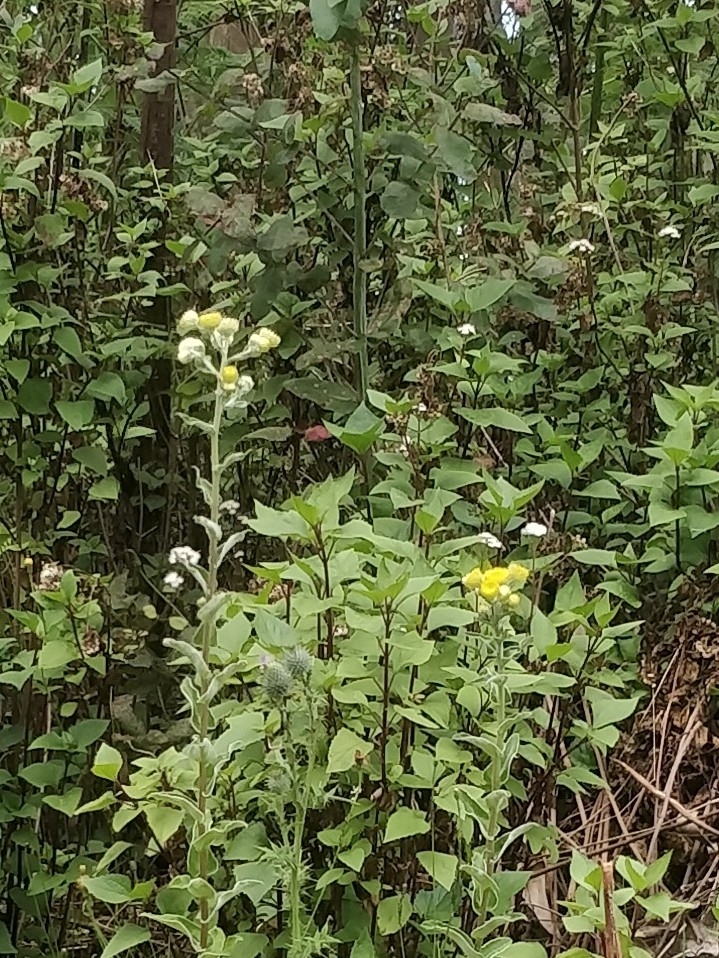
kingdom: Plantae
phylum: Tracheophyta
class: Magnoliopsida
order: Asterales
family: Asteraceae
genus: Helichrysum
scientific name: Helichrysum foetidum
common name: Stinking everlasting
